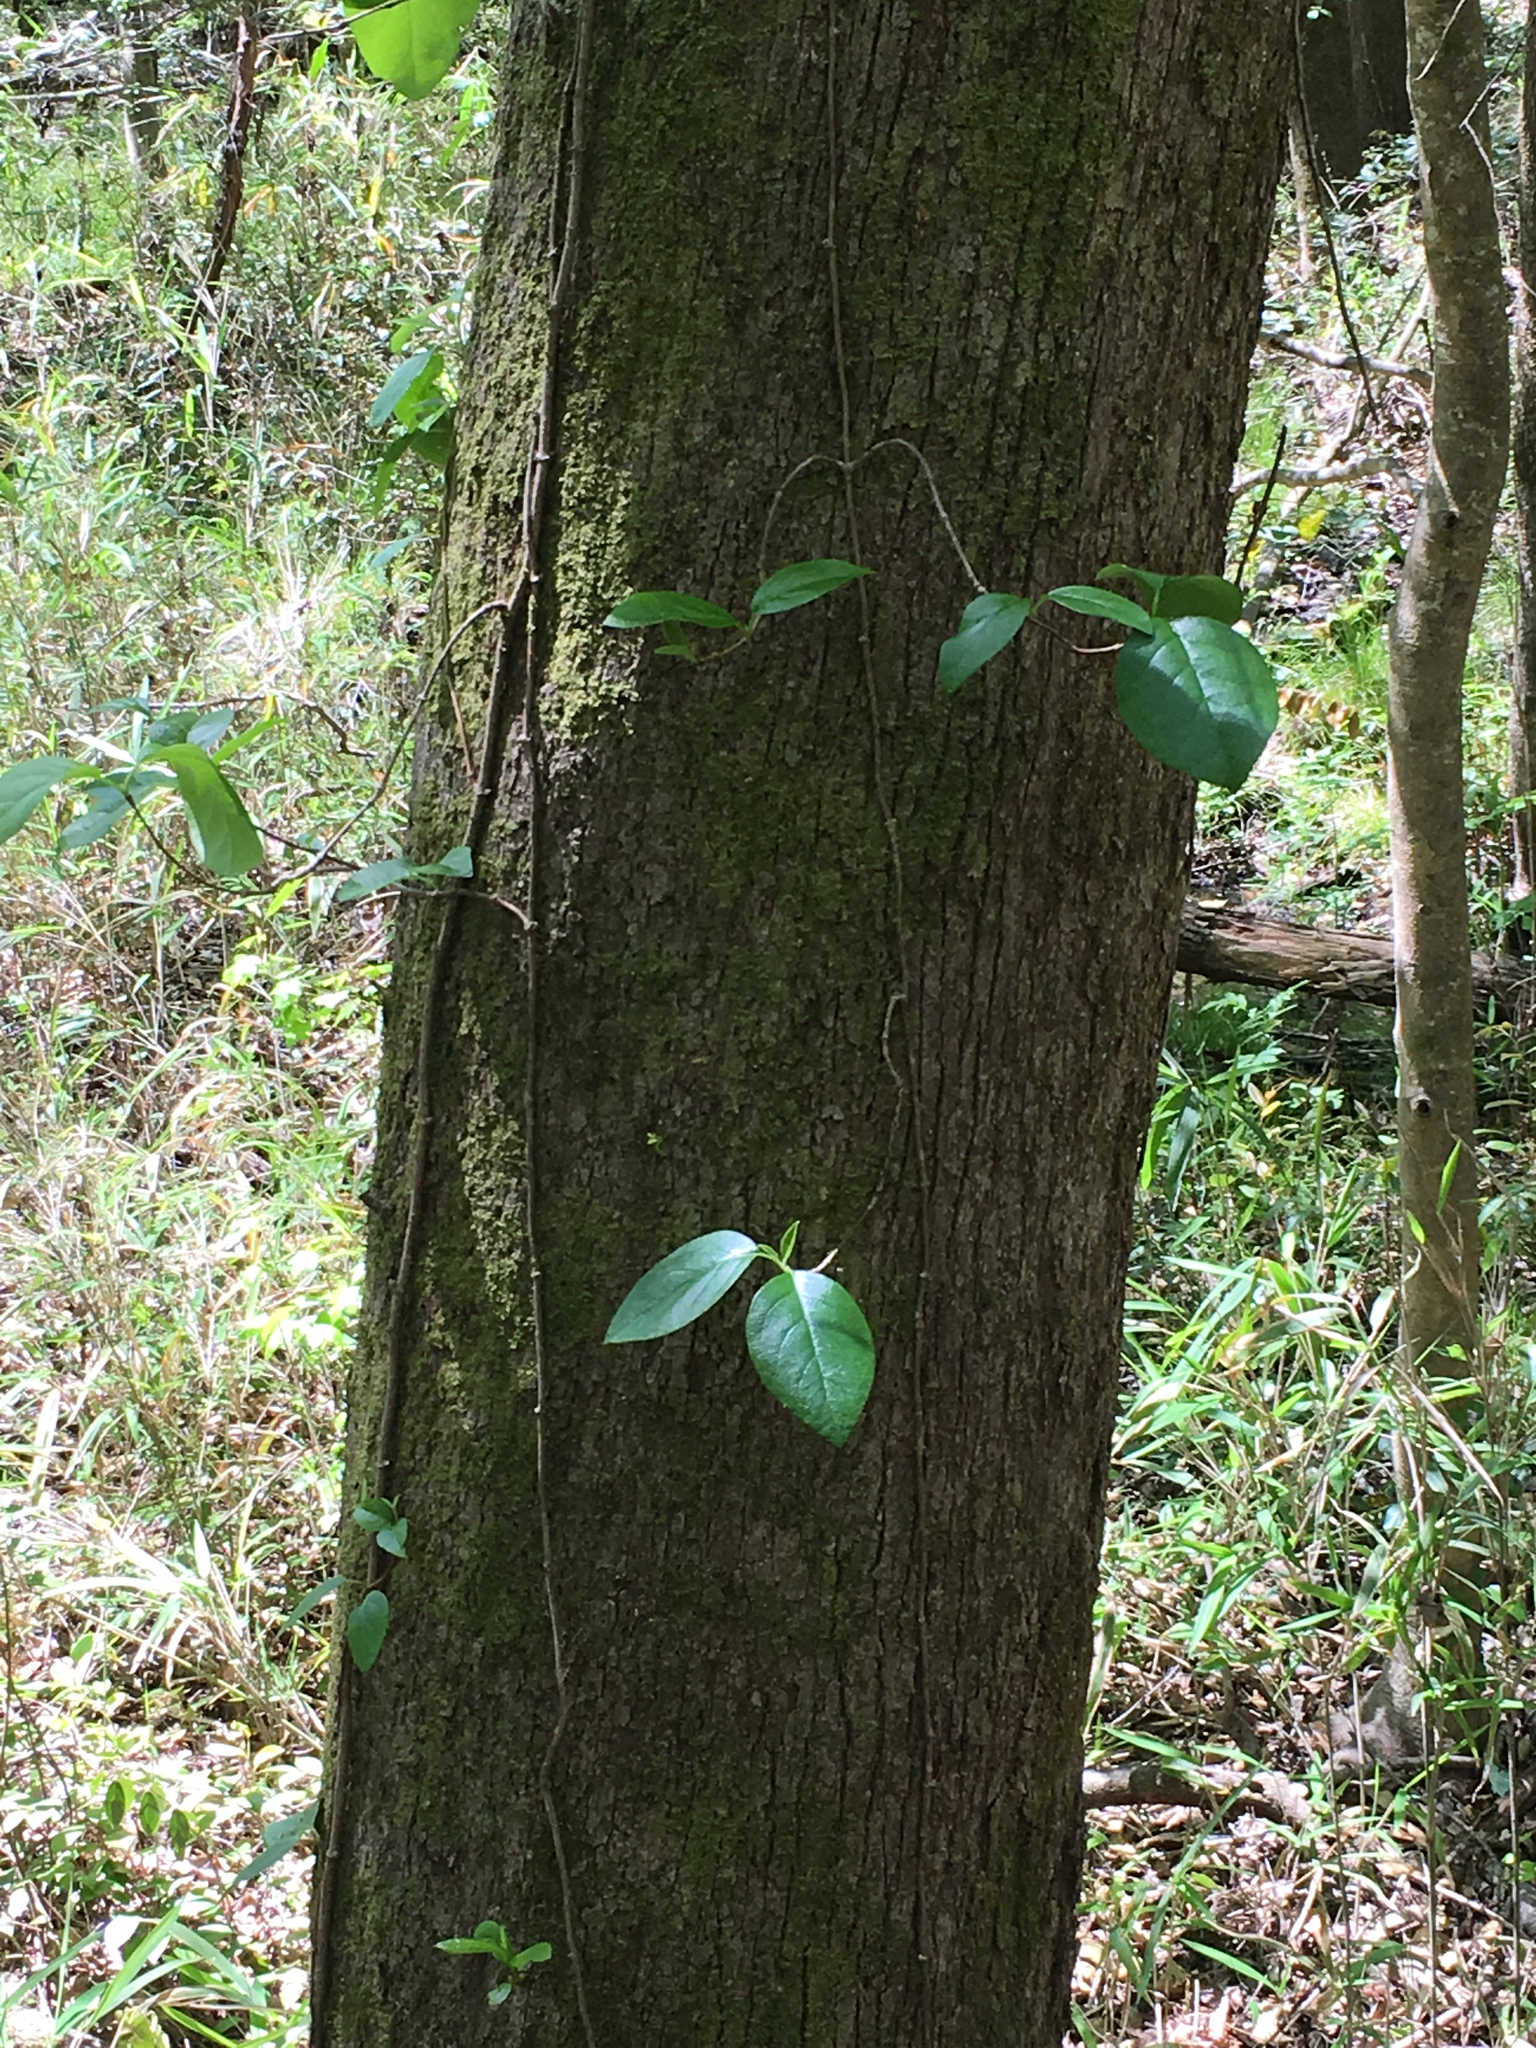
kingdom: Plantae
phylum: Tracheophyta
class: Magnoliopsida
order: Cornales
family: Hydrangeaceae
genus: Hydrangea
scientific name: Hydrangea barbara
